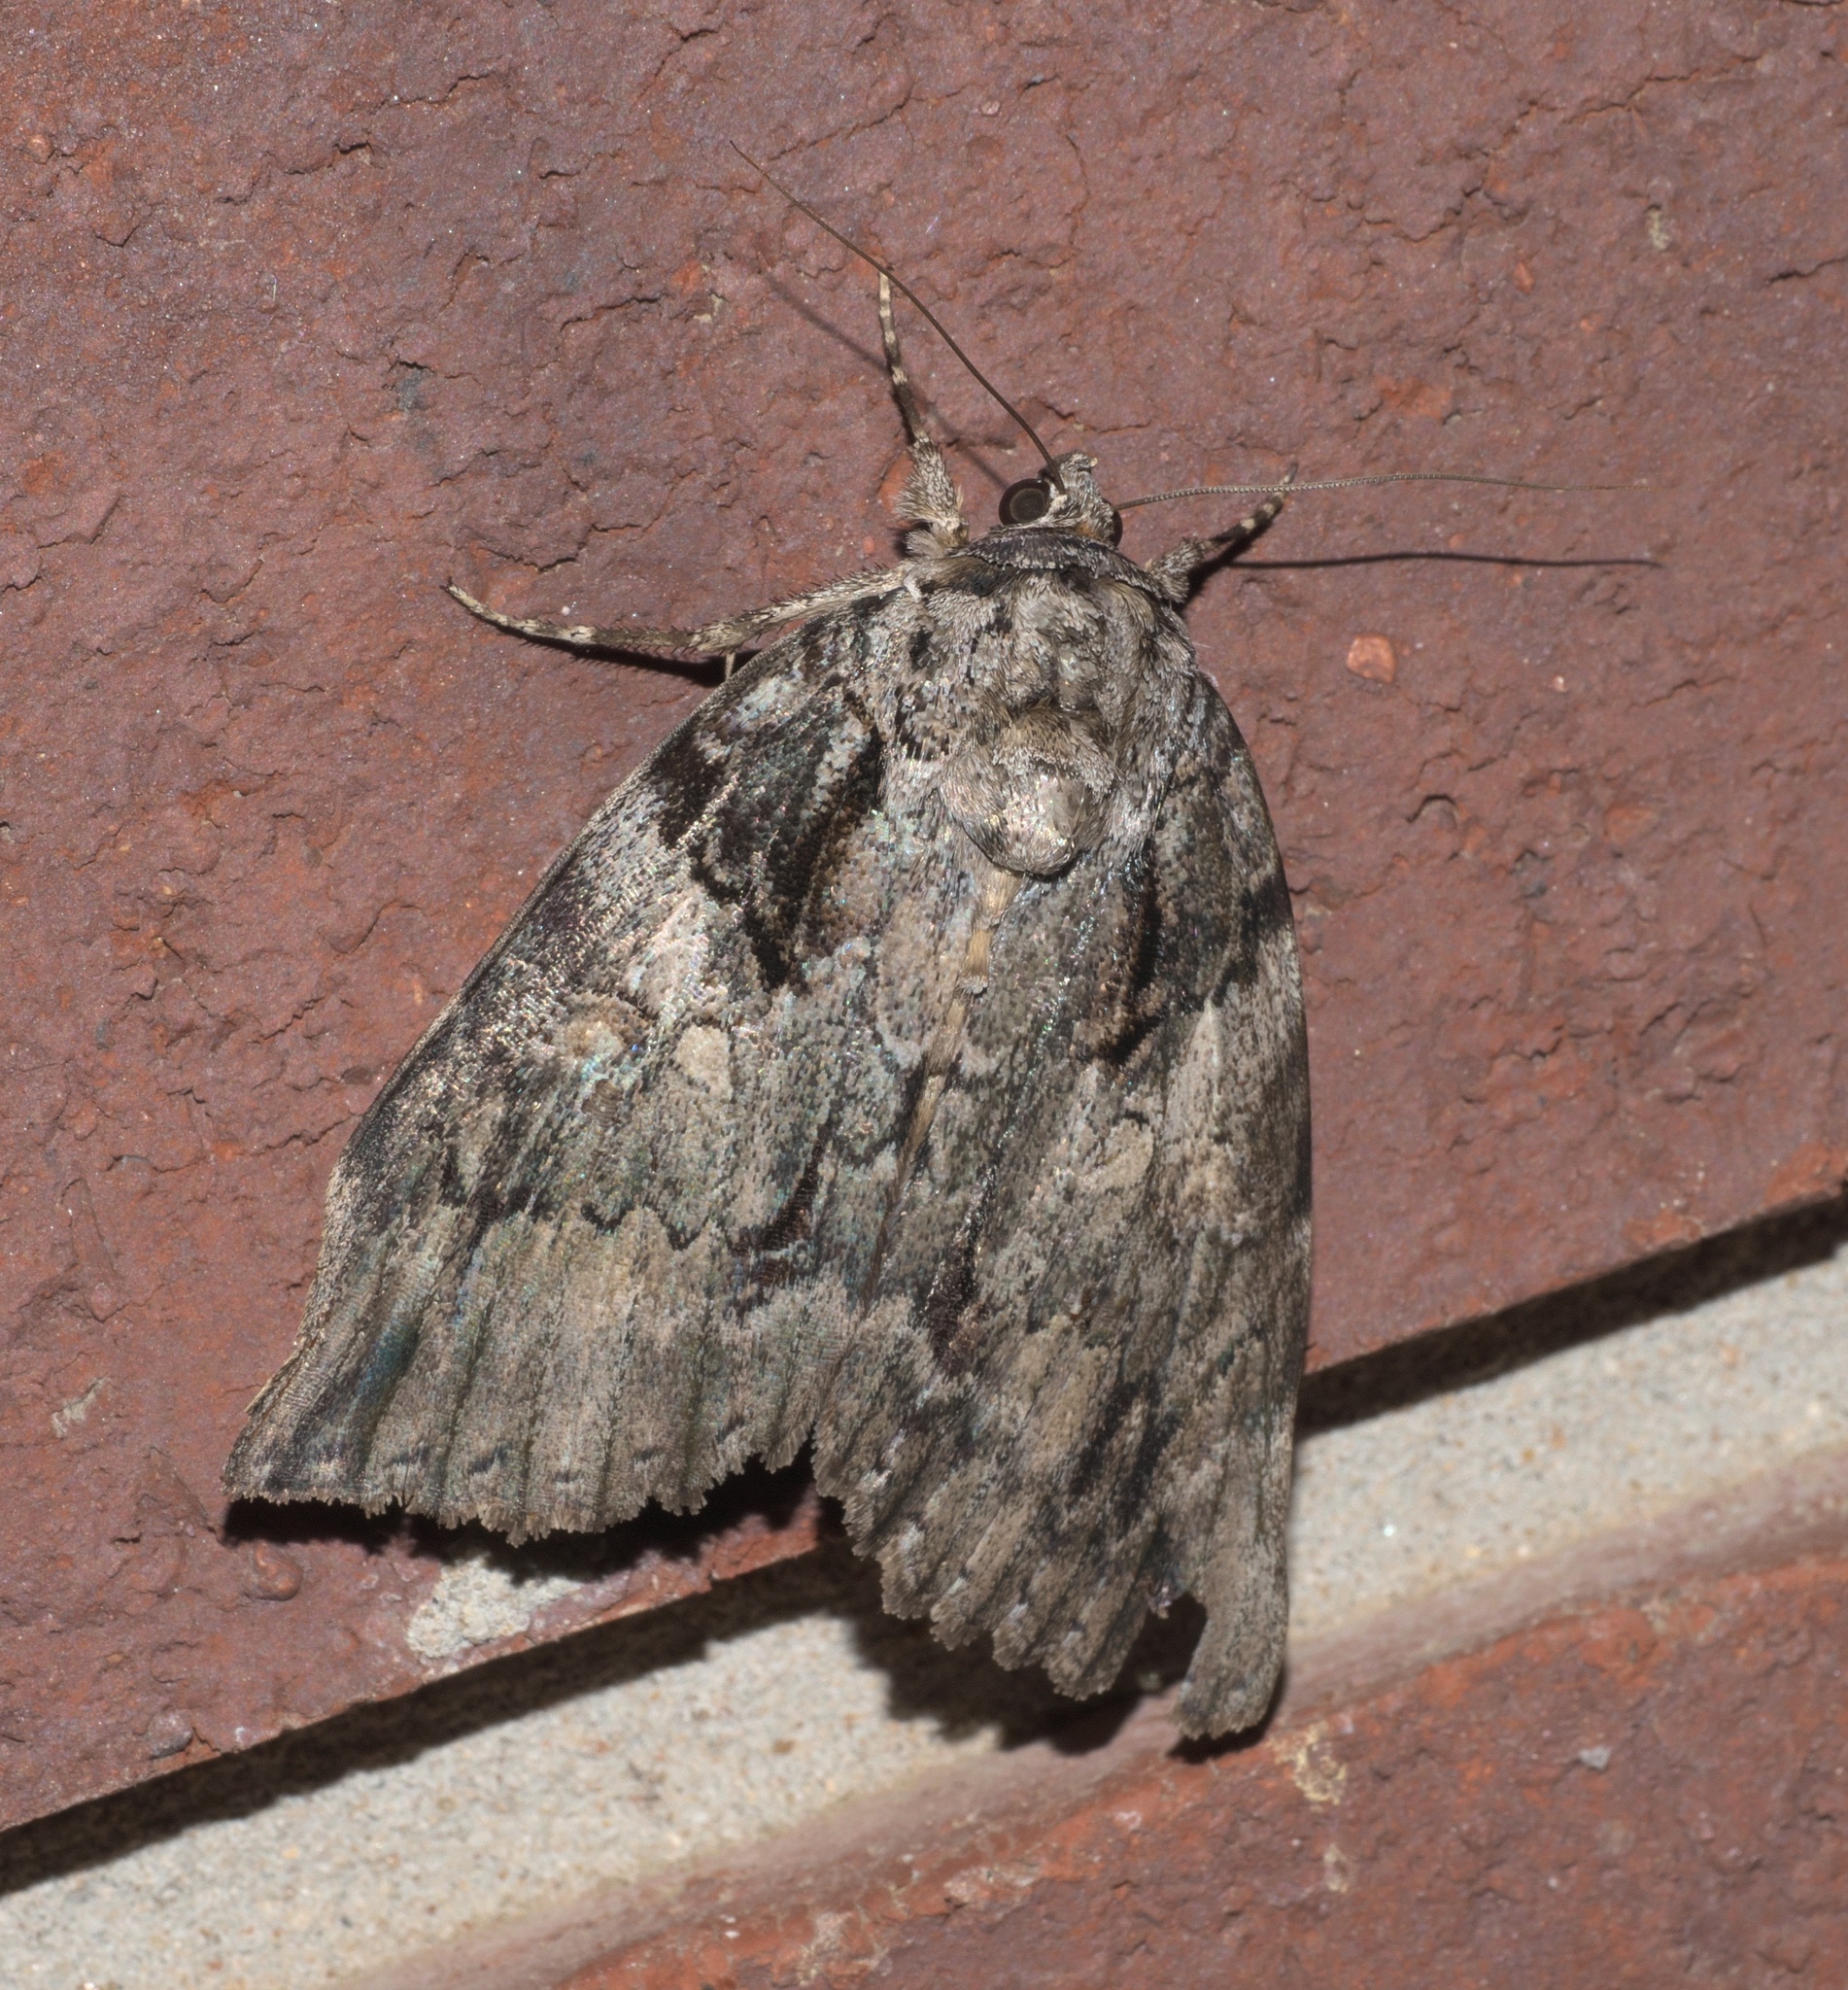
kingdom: Animalia
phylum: Arthropoda
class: Insecta
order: Lepidoptera
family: Erebidae
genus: Catocala
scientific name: Catocala neogama
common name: Bride underwing
